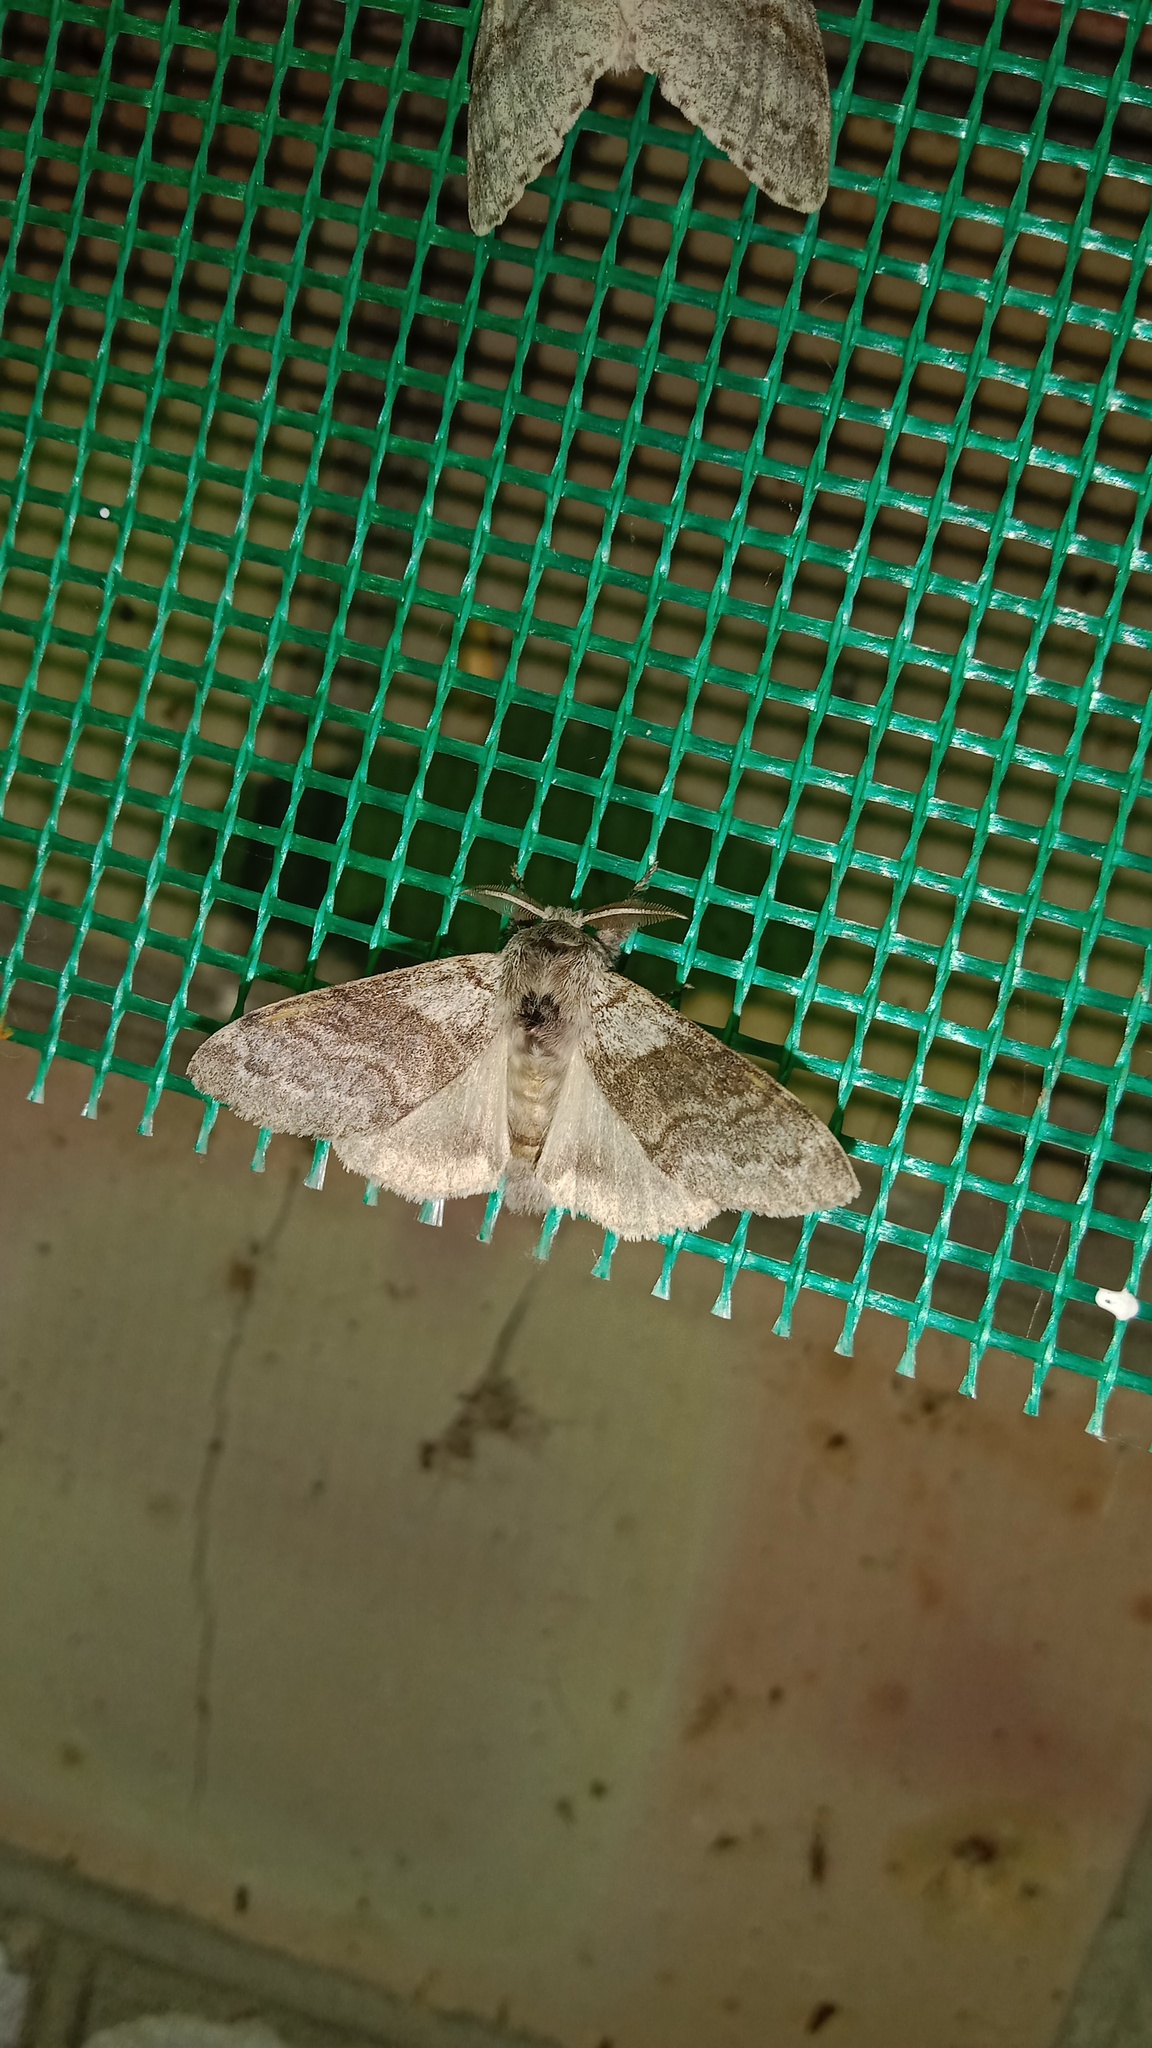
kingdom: Animalia
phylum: Arthropoda
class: Insecta
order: Lepidoptera
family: Erebidae
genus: Calliteara
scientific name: Calliteara pudibunda
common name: Pale tussock
